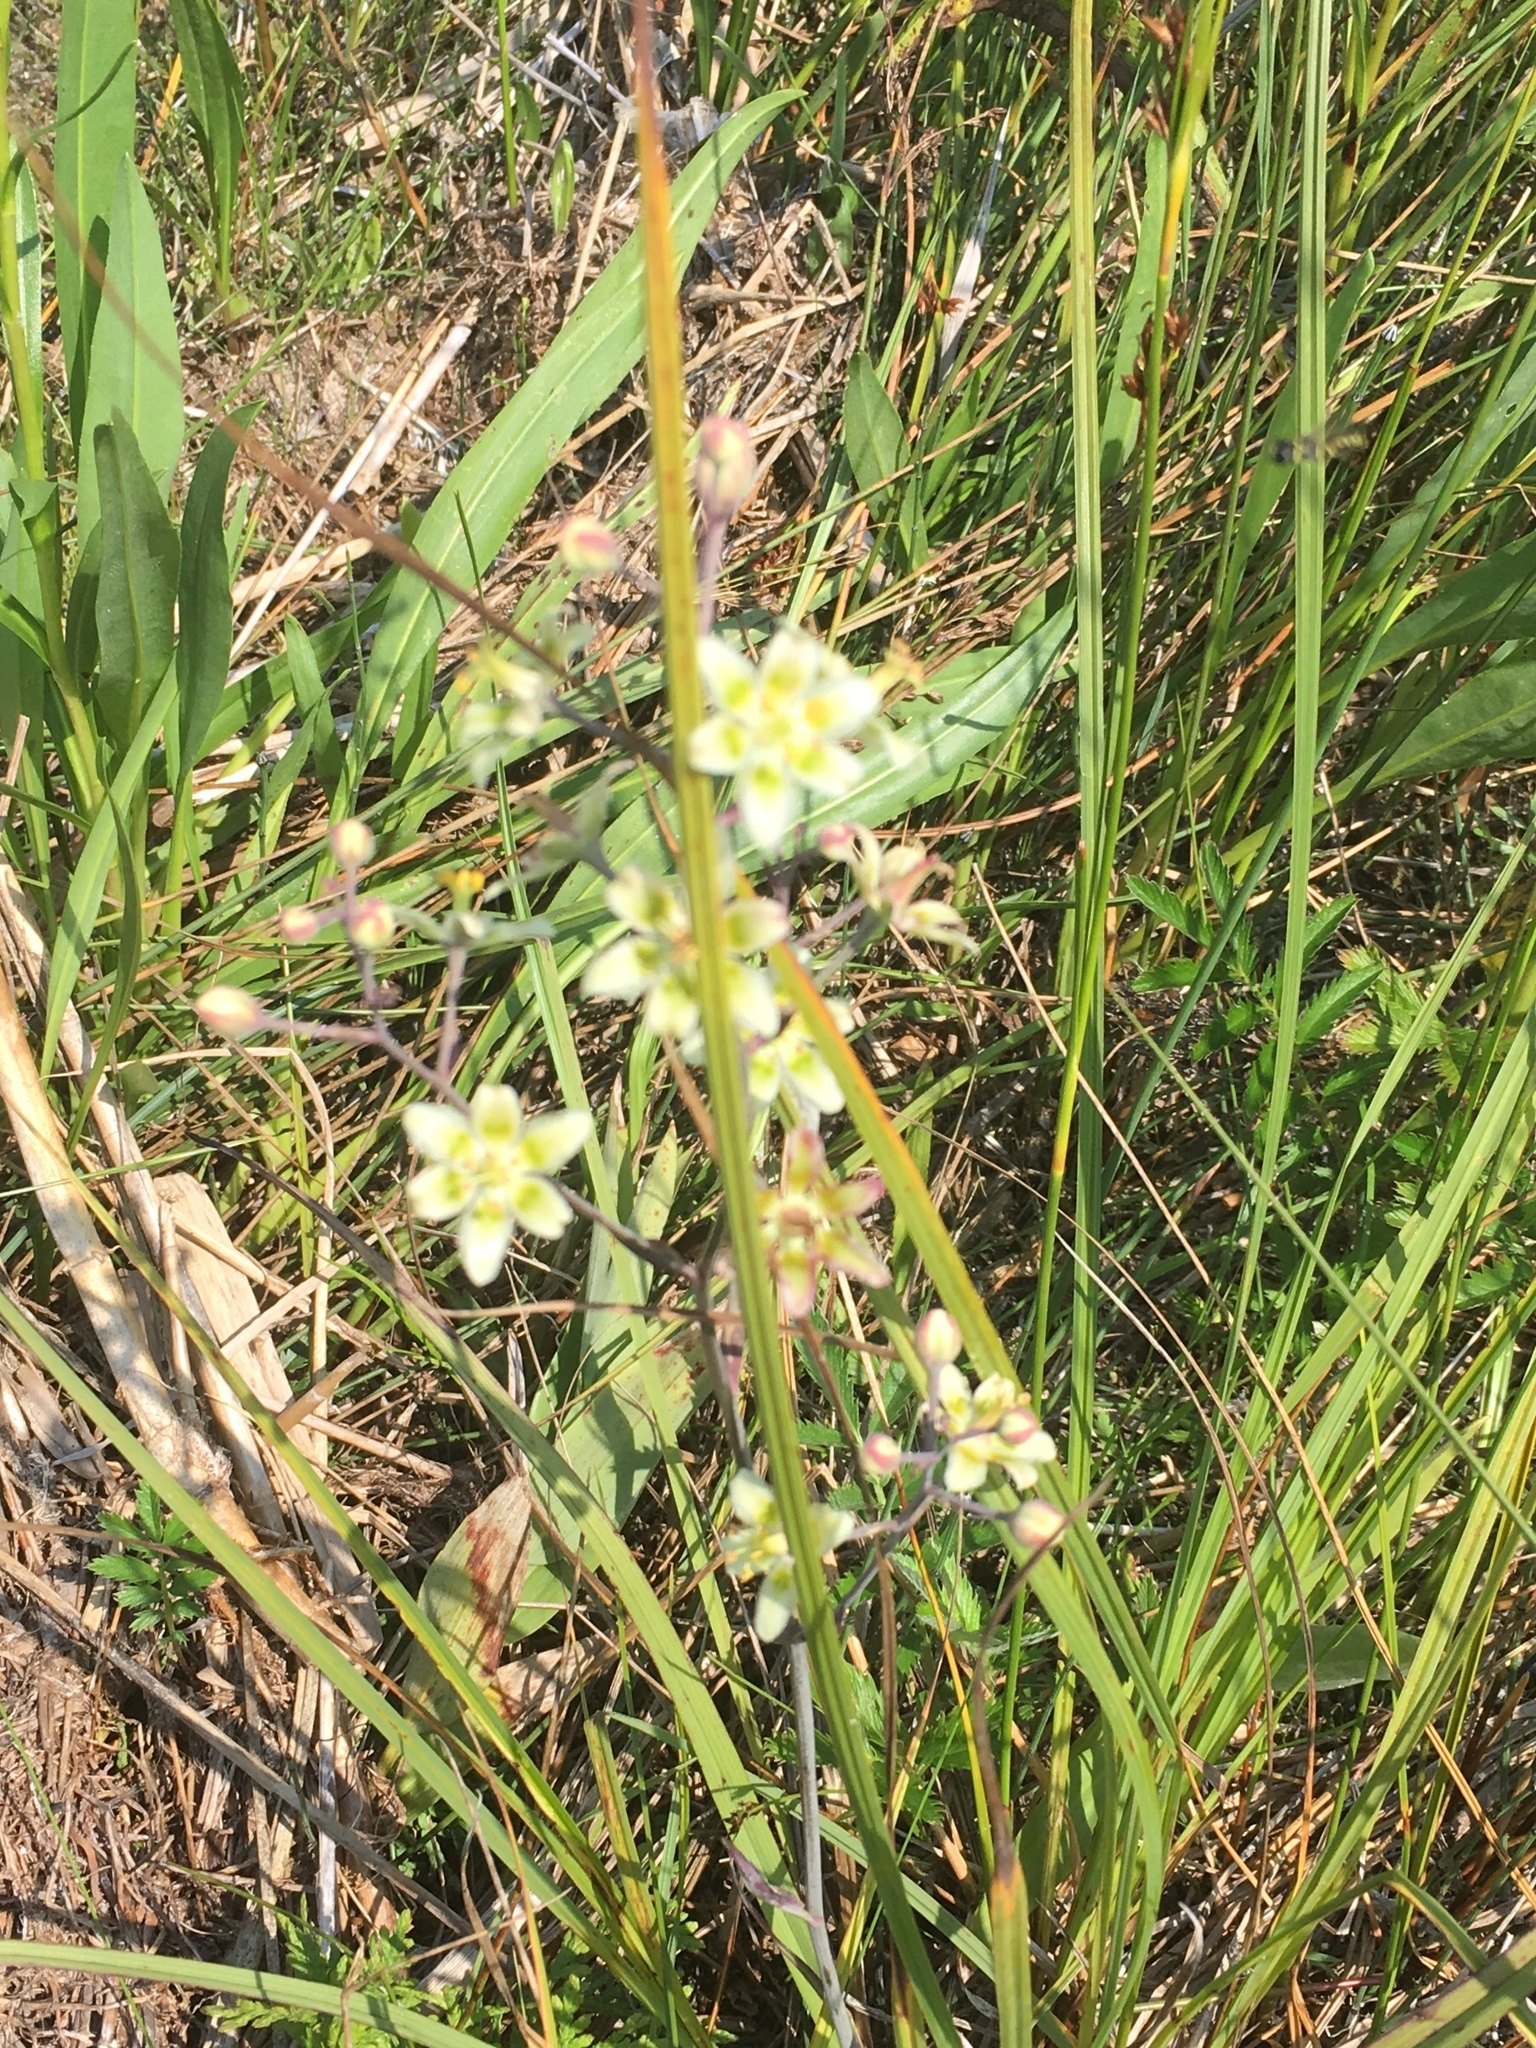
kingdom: Plantae
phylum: Tracheophyta
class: Liliopsida
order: Liliales
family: Melanthiaceae
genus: Anticlea
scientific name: Anticlea elegans
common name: Mountain death camas
